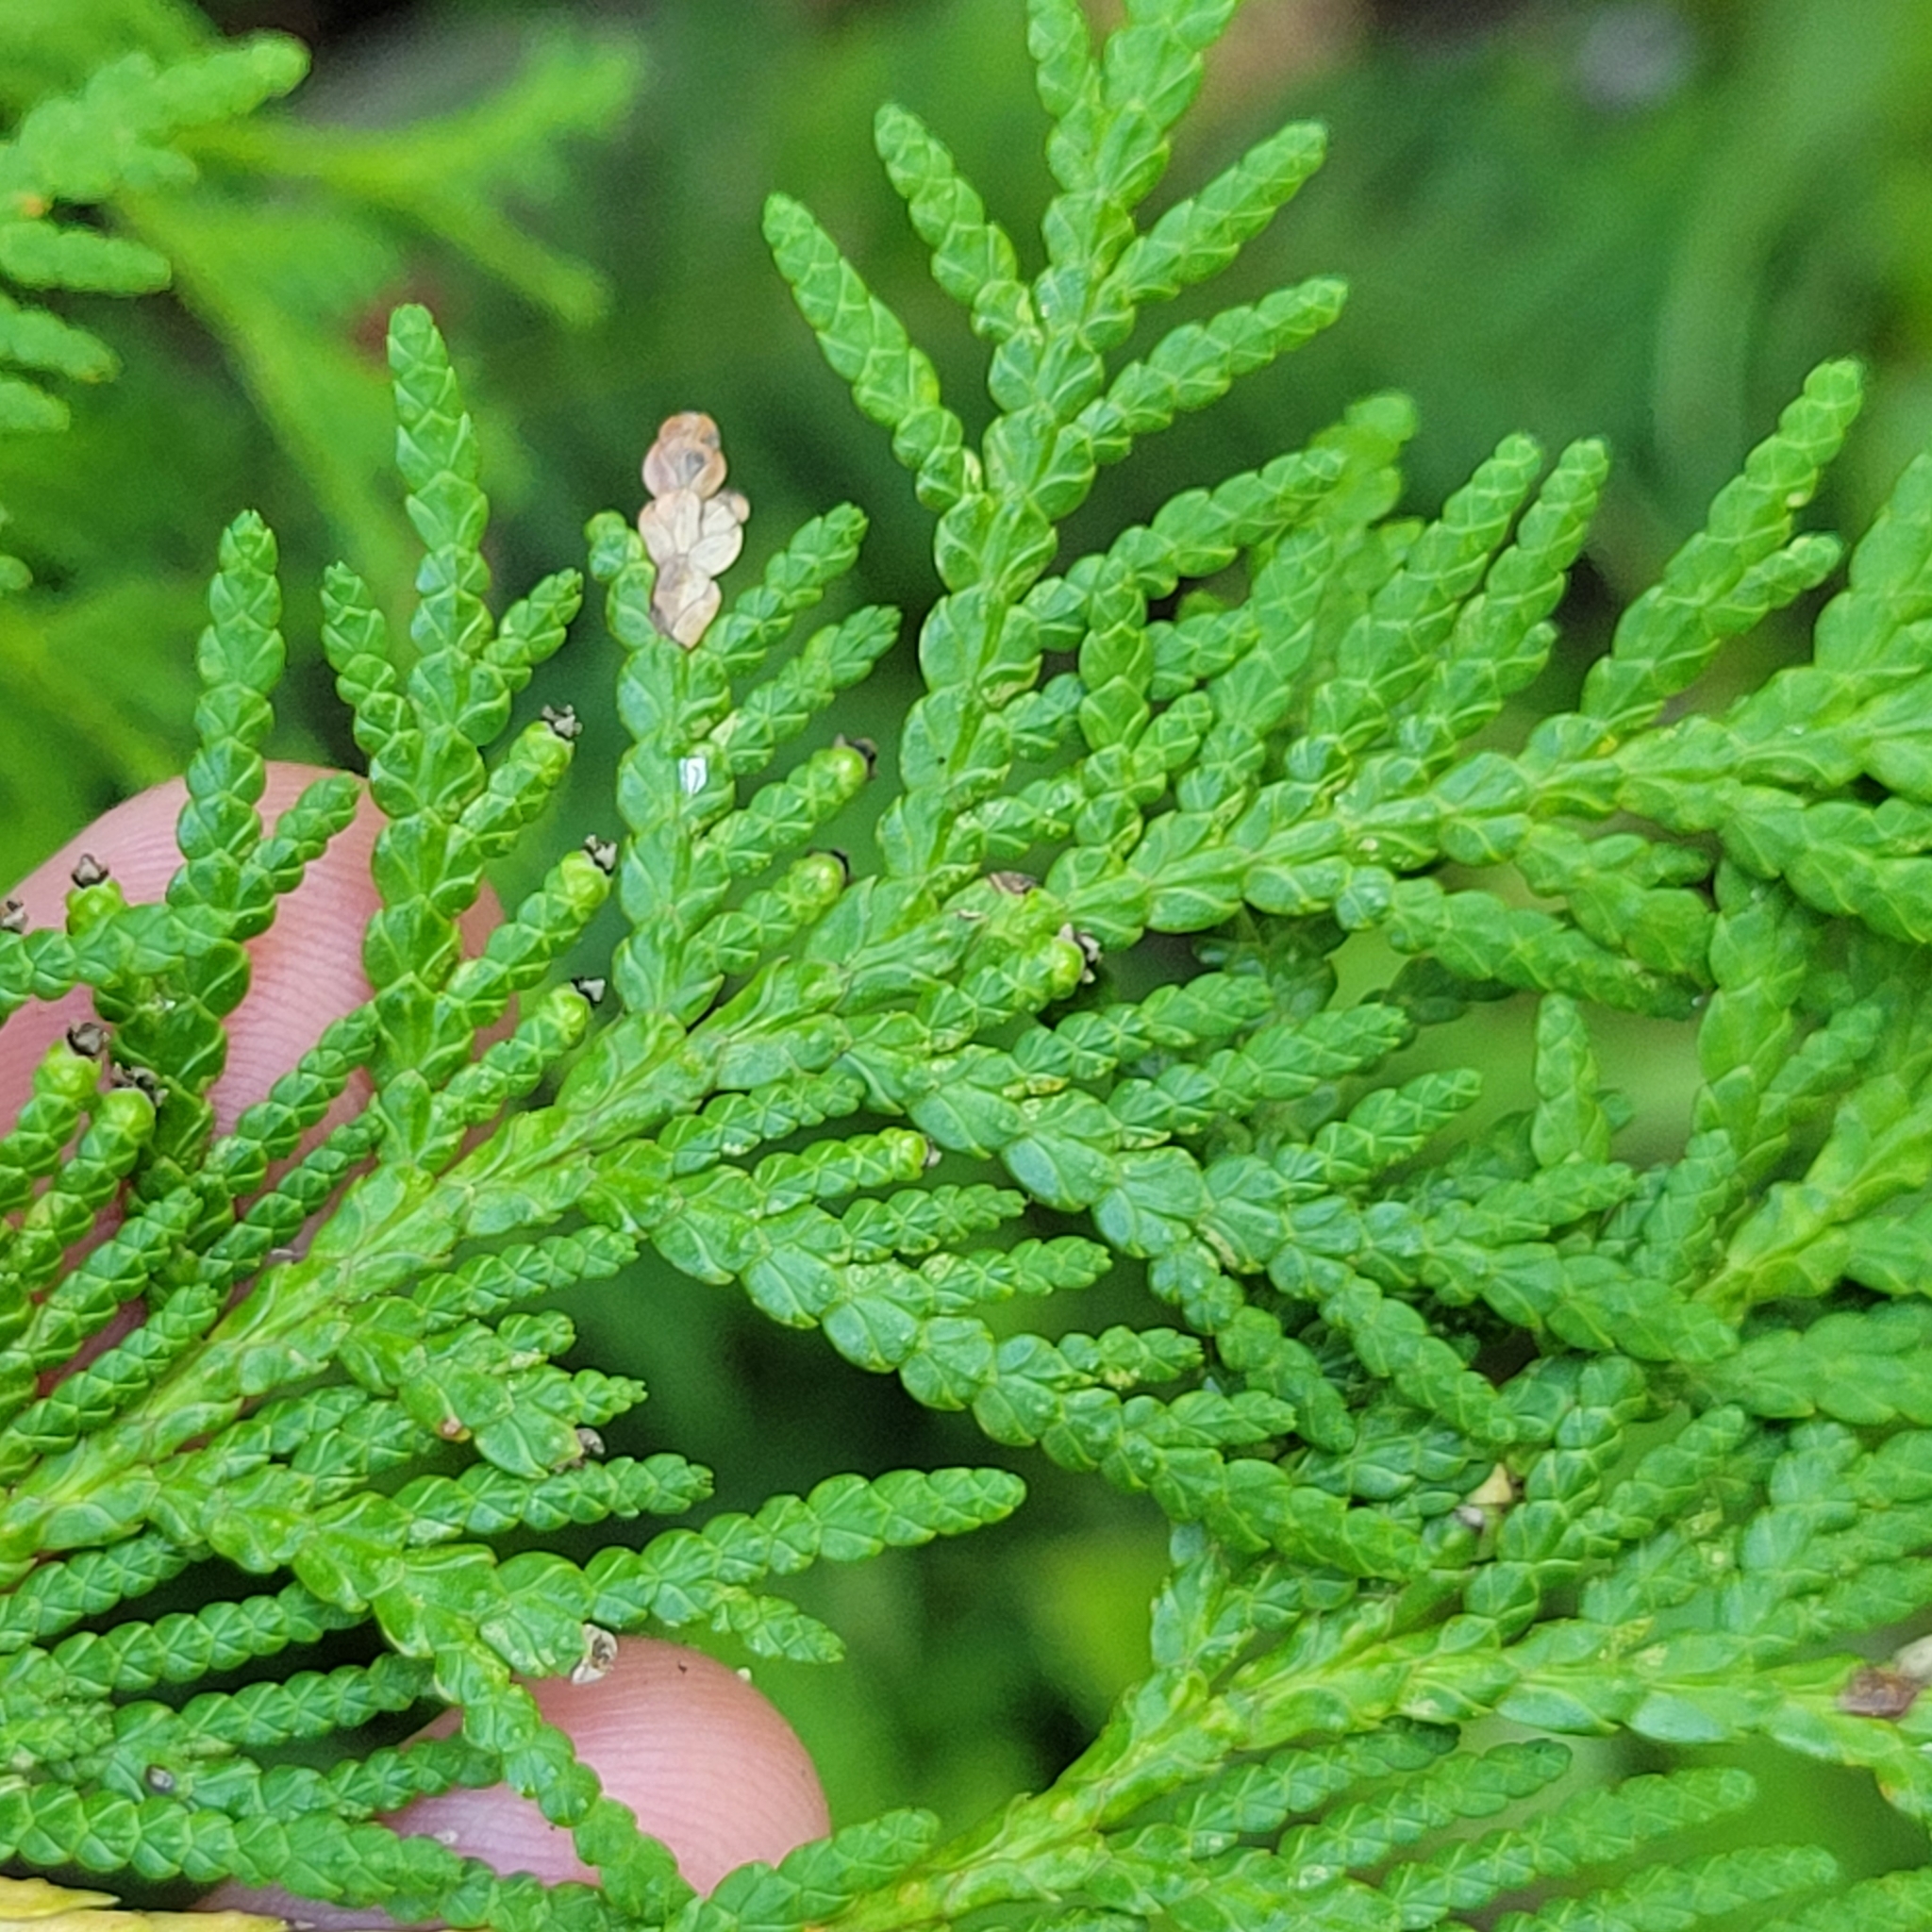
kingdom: Plantae
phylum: Tracheophyta
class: Pinopsida
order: Pinales
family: Cupressaceae
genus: Thuja
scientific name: Thuja occidentalis
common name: Northern white-cedar
